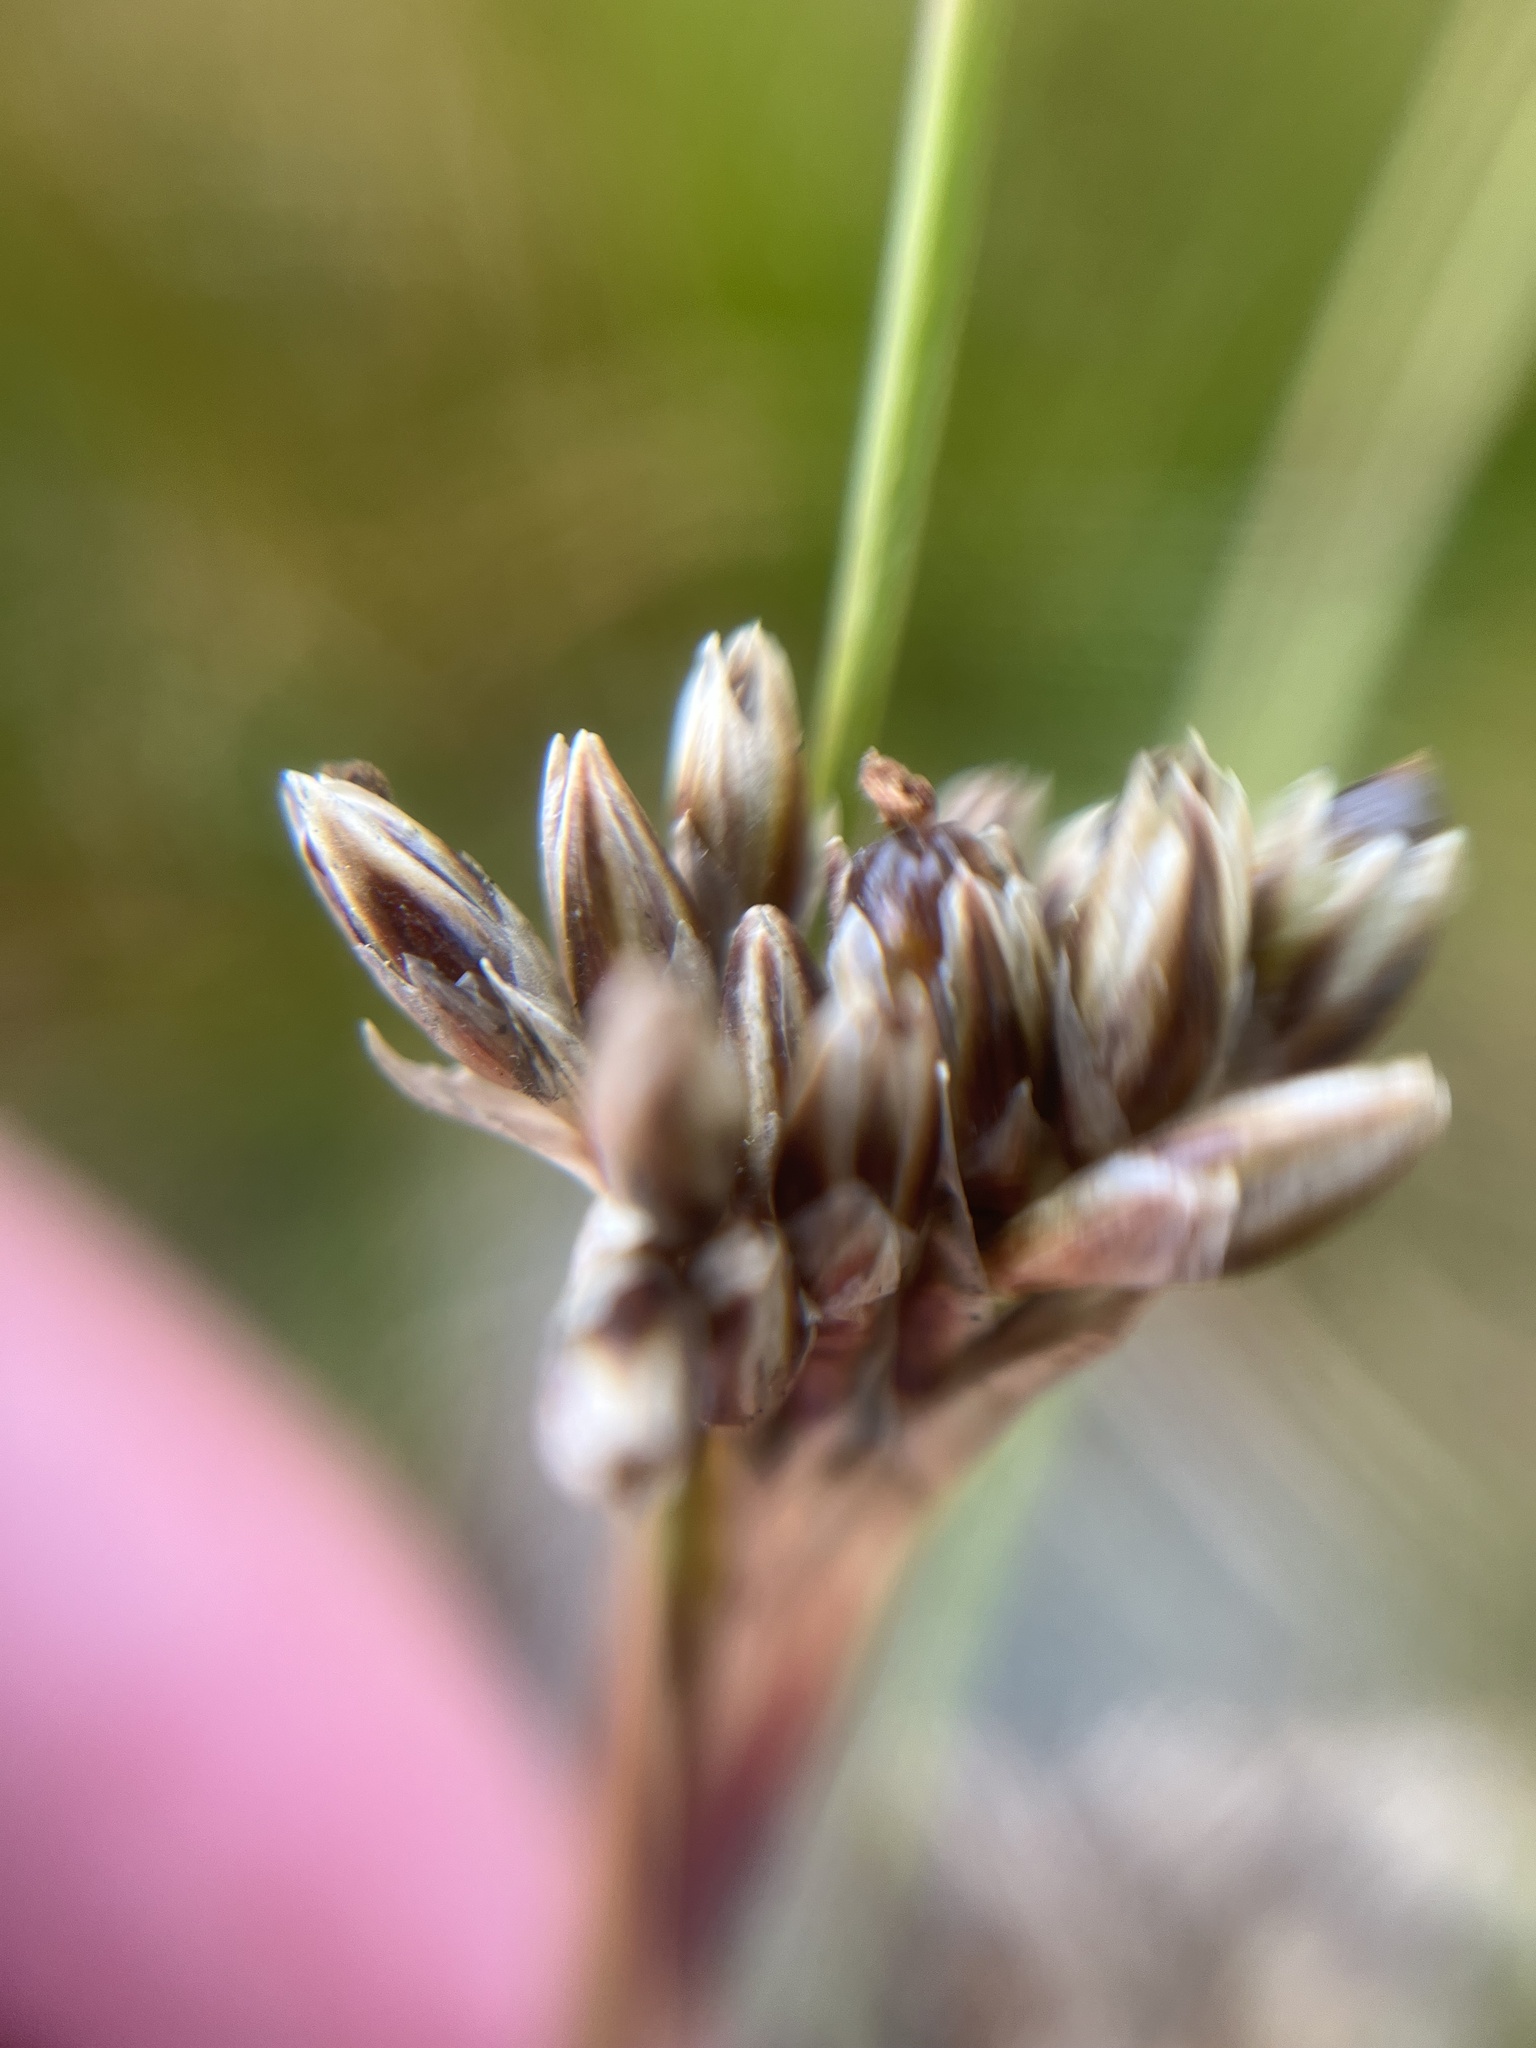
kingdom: Plantae
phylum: Tracheophyta
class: Liliopsida
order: Poales
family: Juncaceae
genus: Juncus
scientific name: Juncus squarrosus
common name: Heath rush
